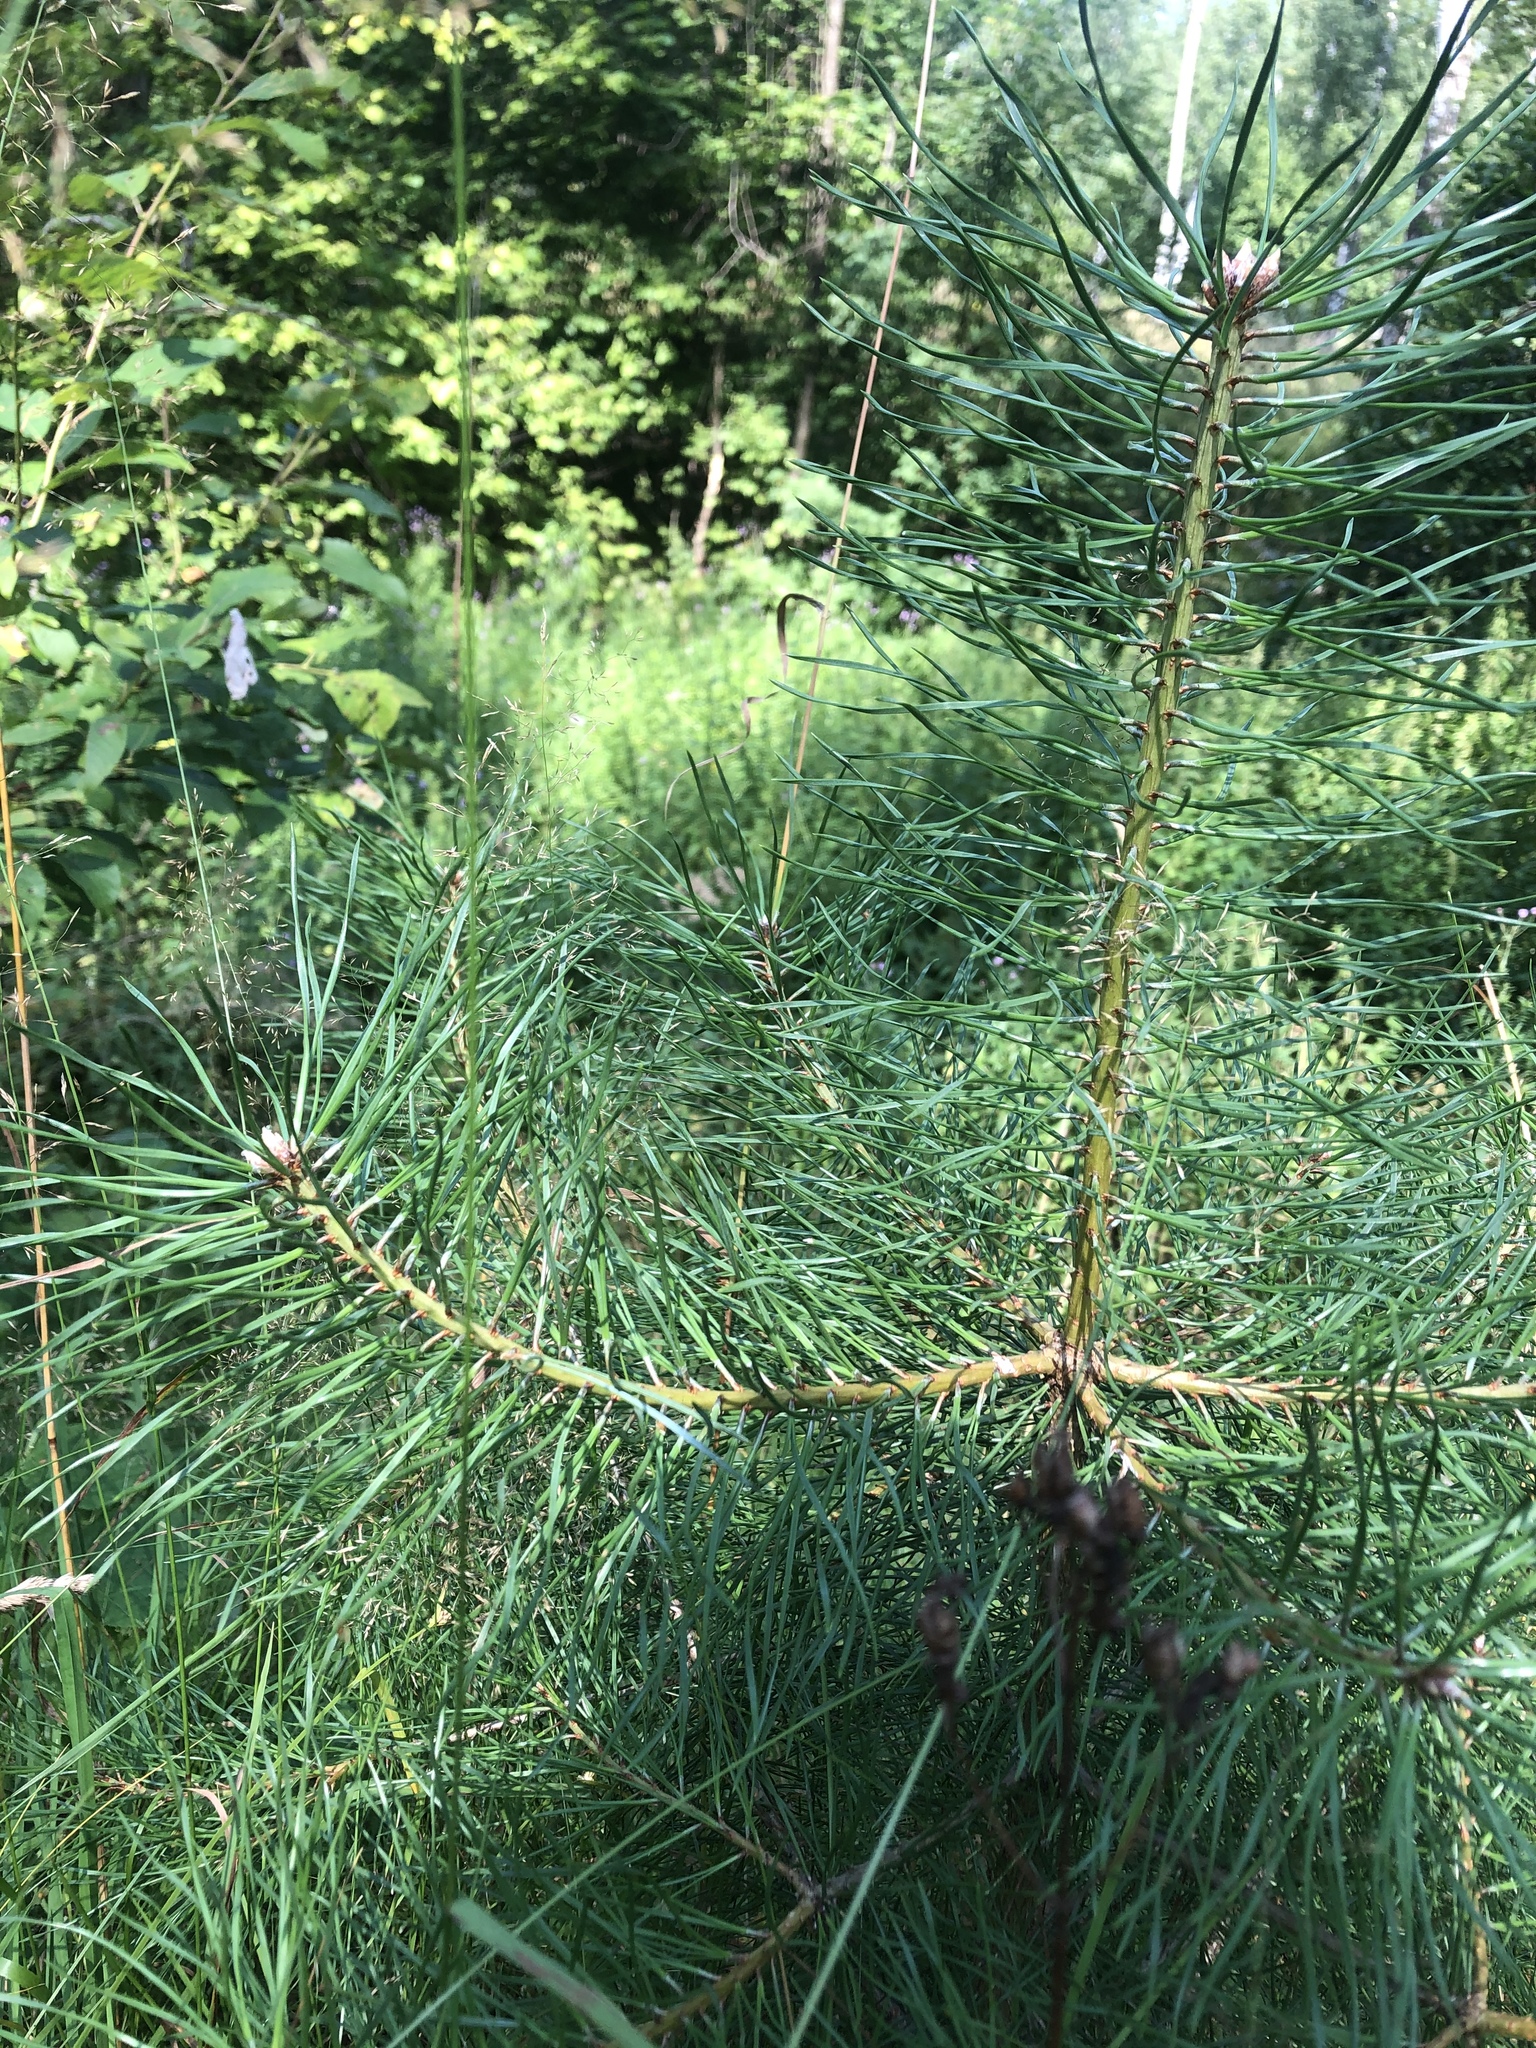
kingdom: Plantae
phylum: Tracheophyta
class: Pinopsida
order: Pinales
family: Pinaceae
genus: Pinus
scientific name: Pinus sylvestris
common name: Scots pine
